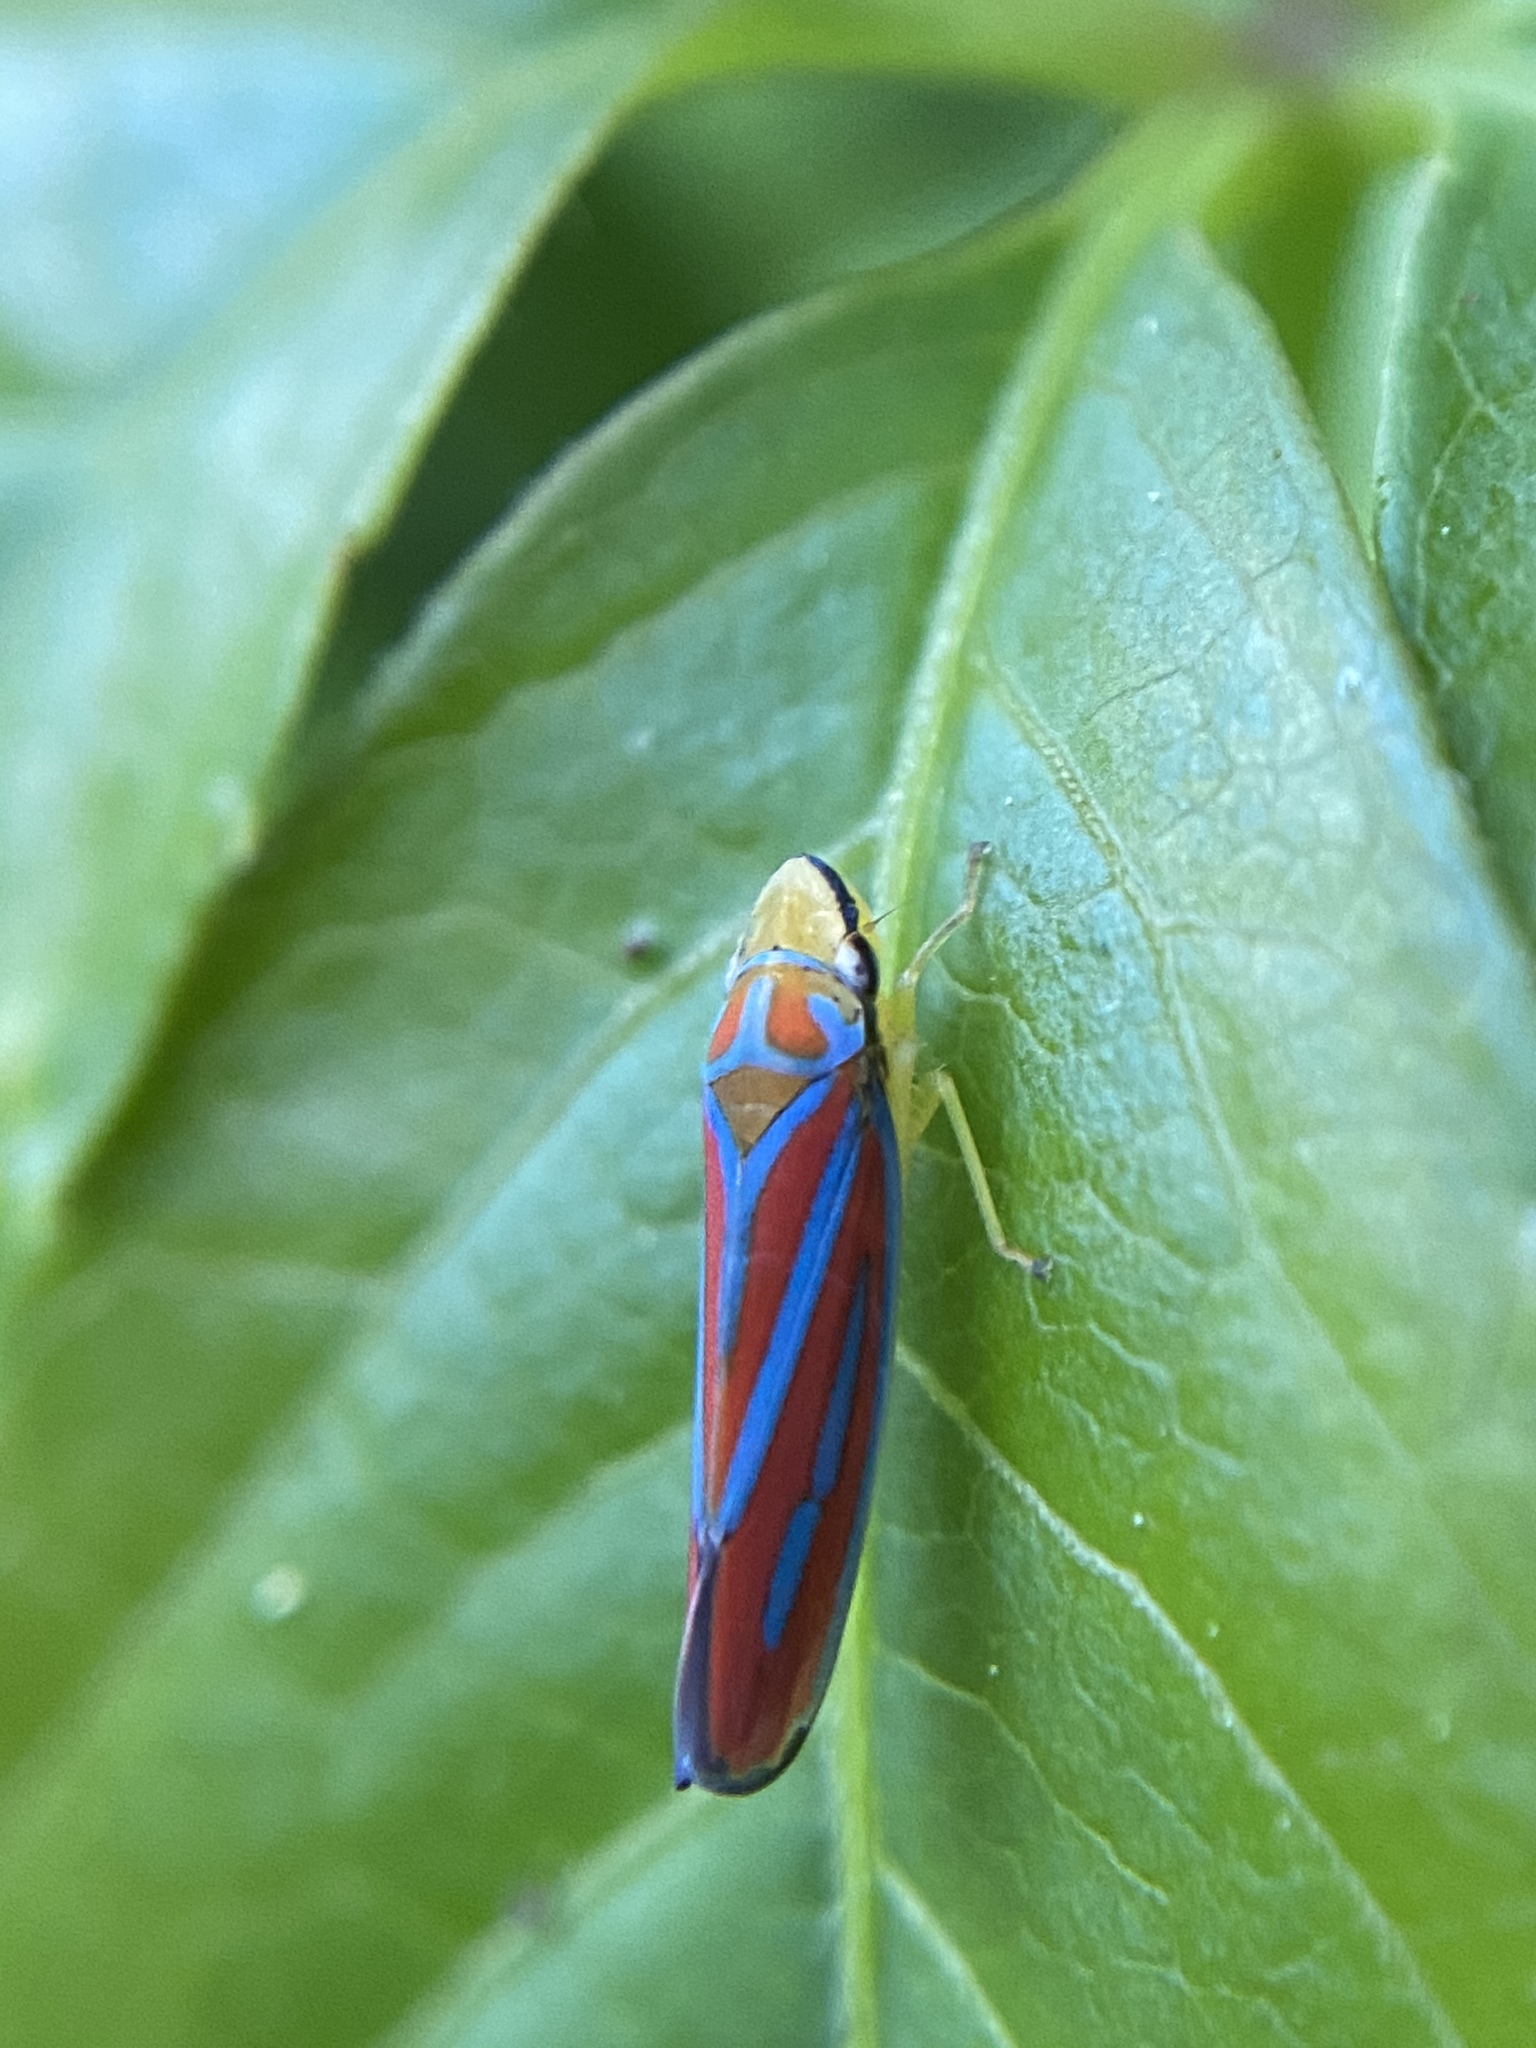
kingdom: Animalia
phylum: Arthropoda
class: Insecta
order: Hemiptera
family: Cicadellidae
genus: Graphocephala
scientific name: Graphocephala coccinea
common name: Candy-striped leafhopper
